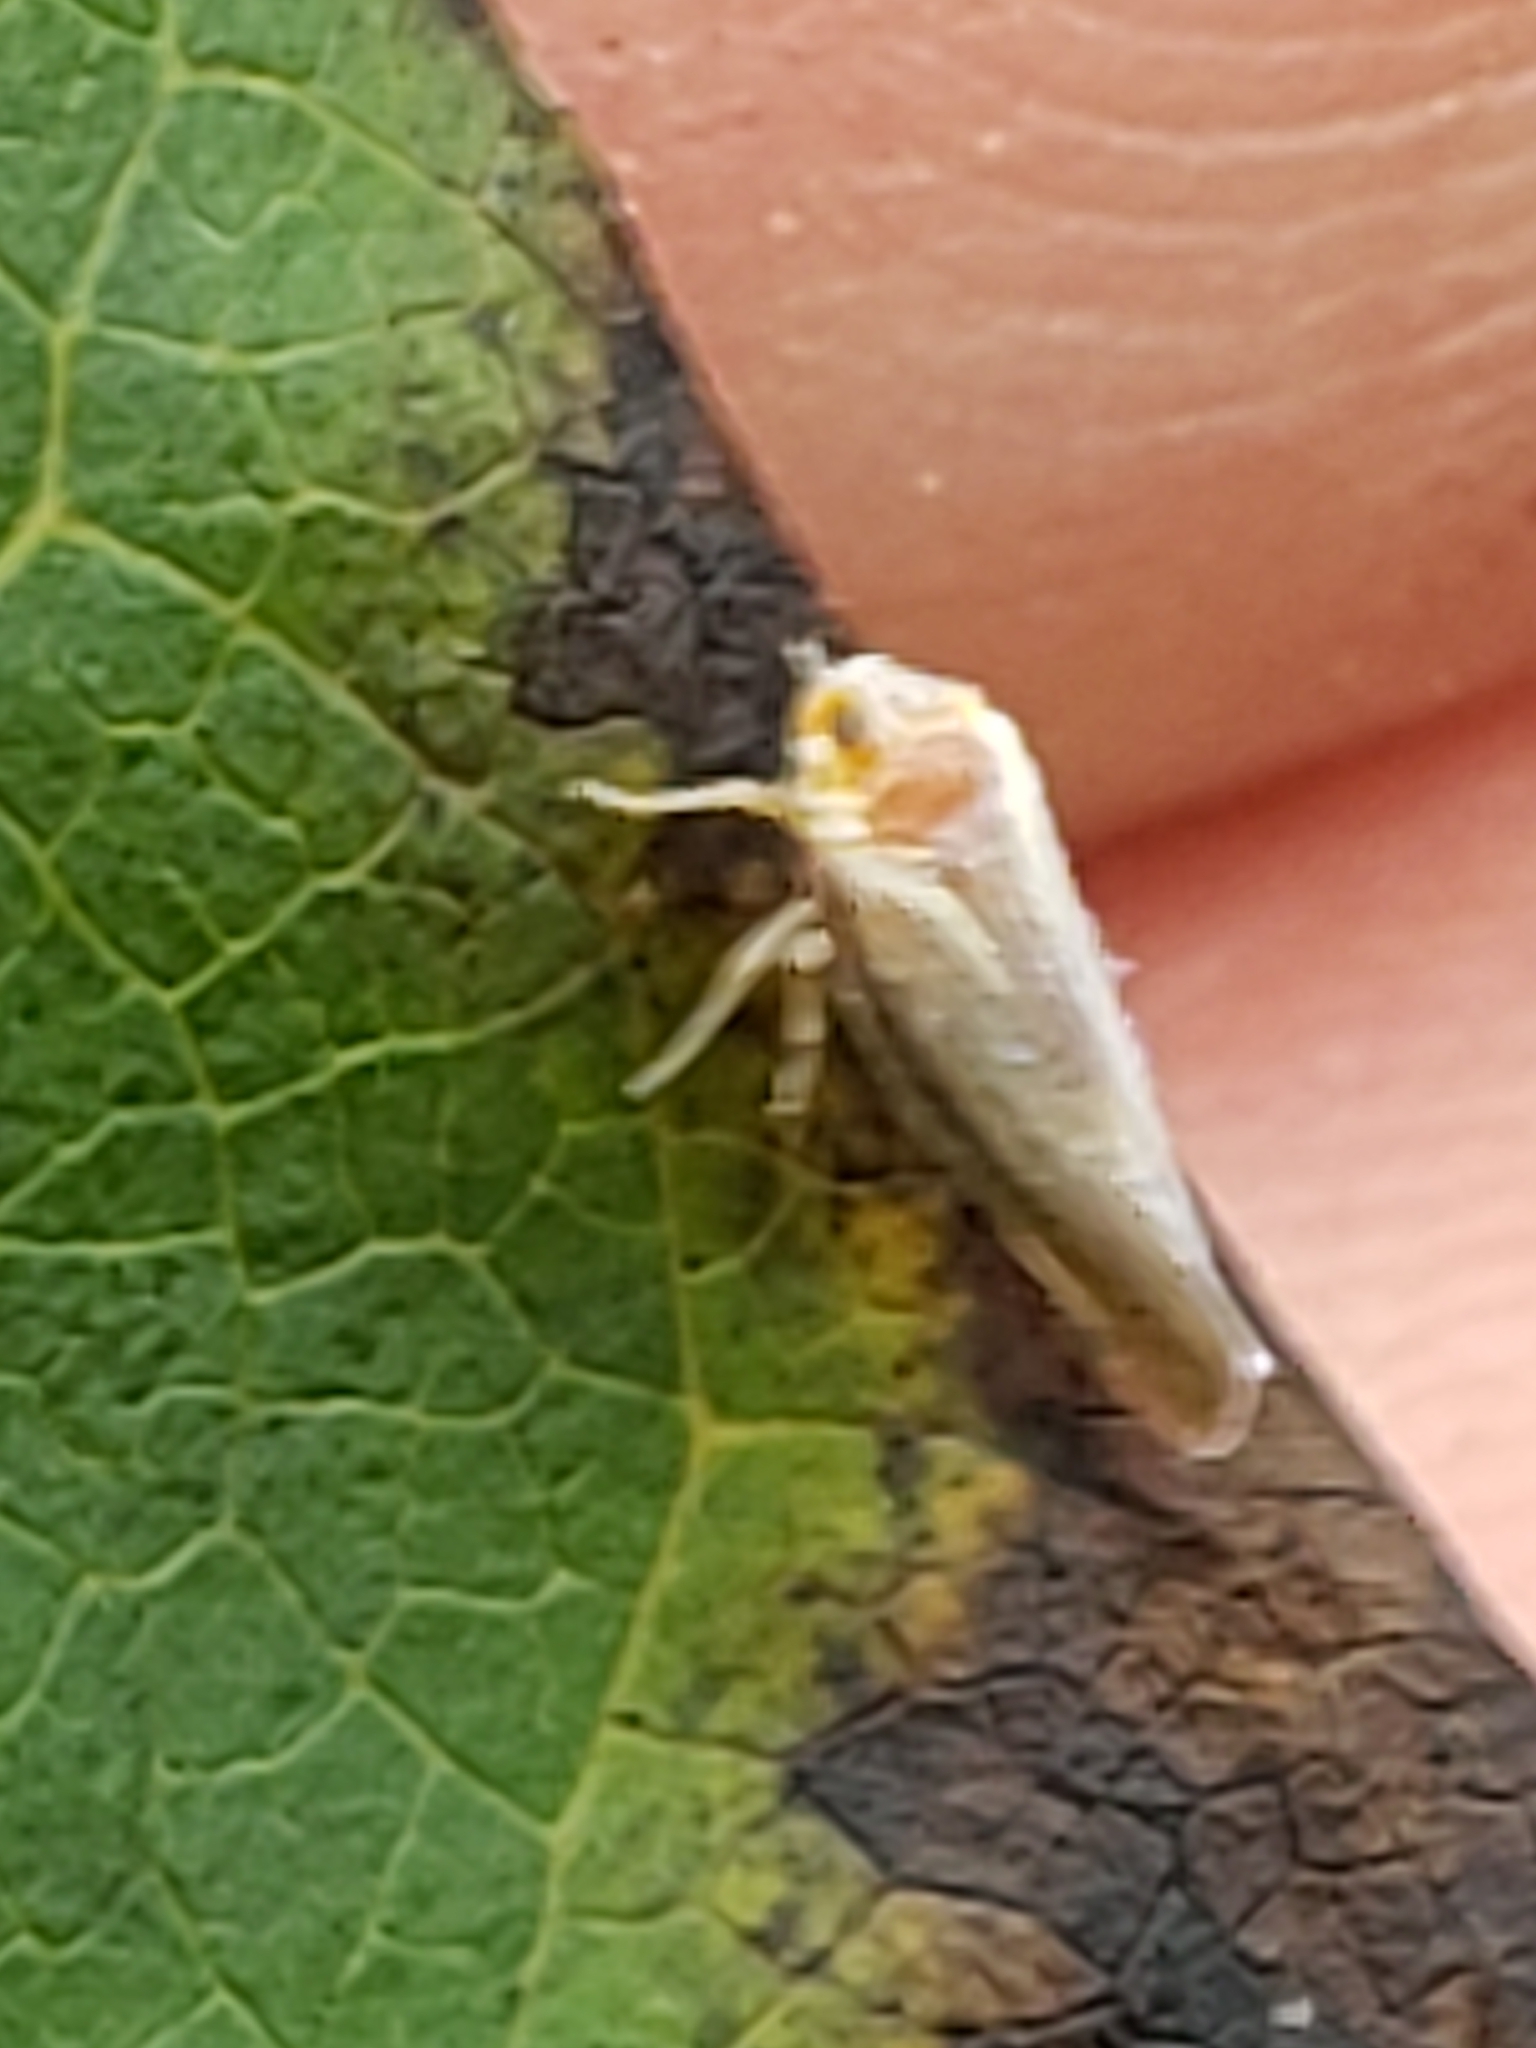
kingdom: Animalia
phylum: Arthropoda
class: Insecta
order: Hemiptera
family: Derbidae
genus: Omolicna
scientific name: Omolicna uhleri
